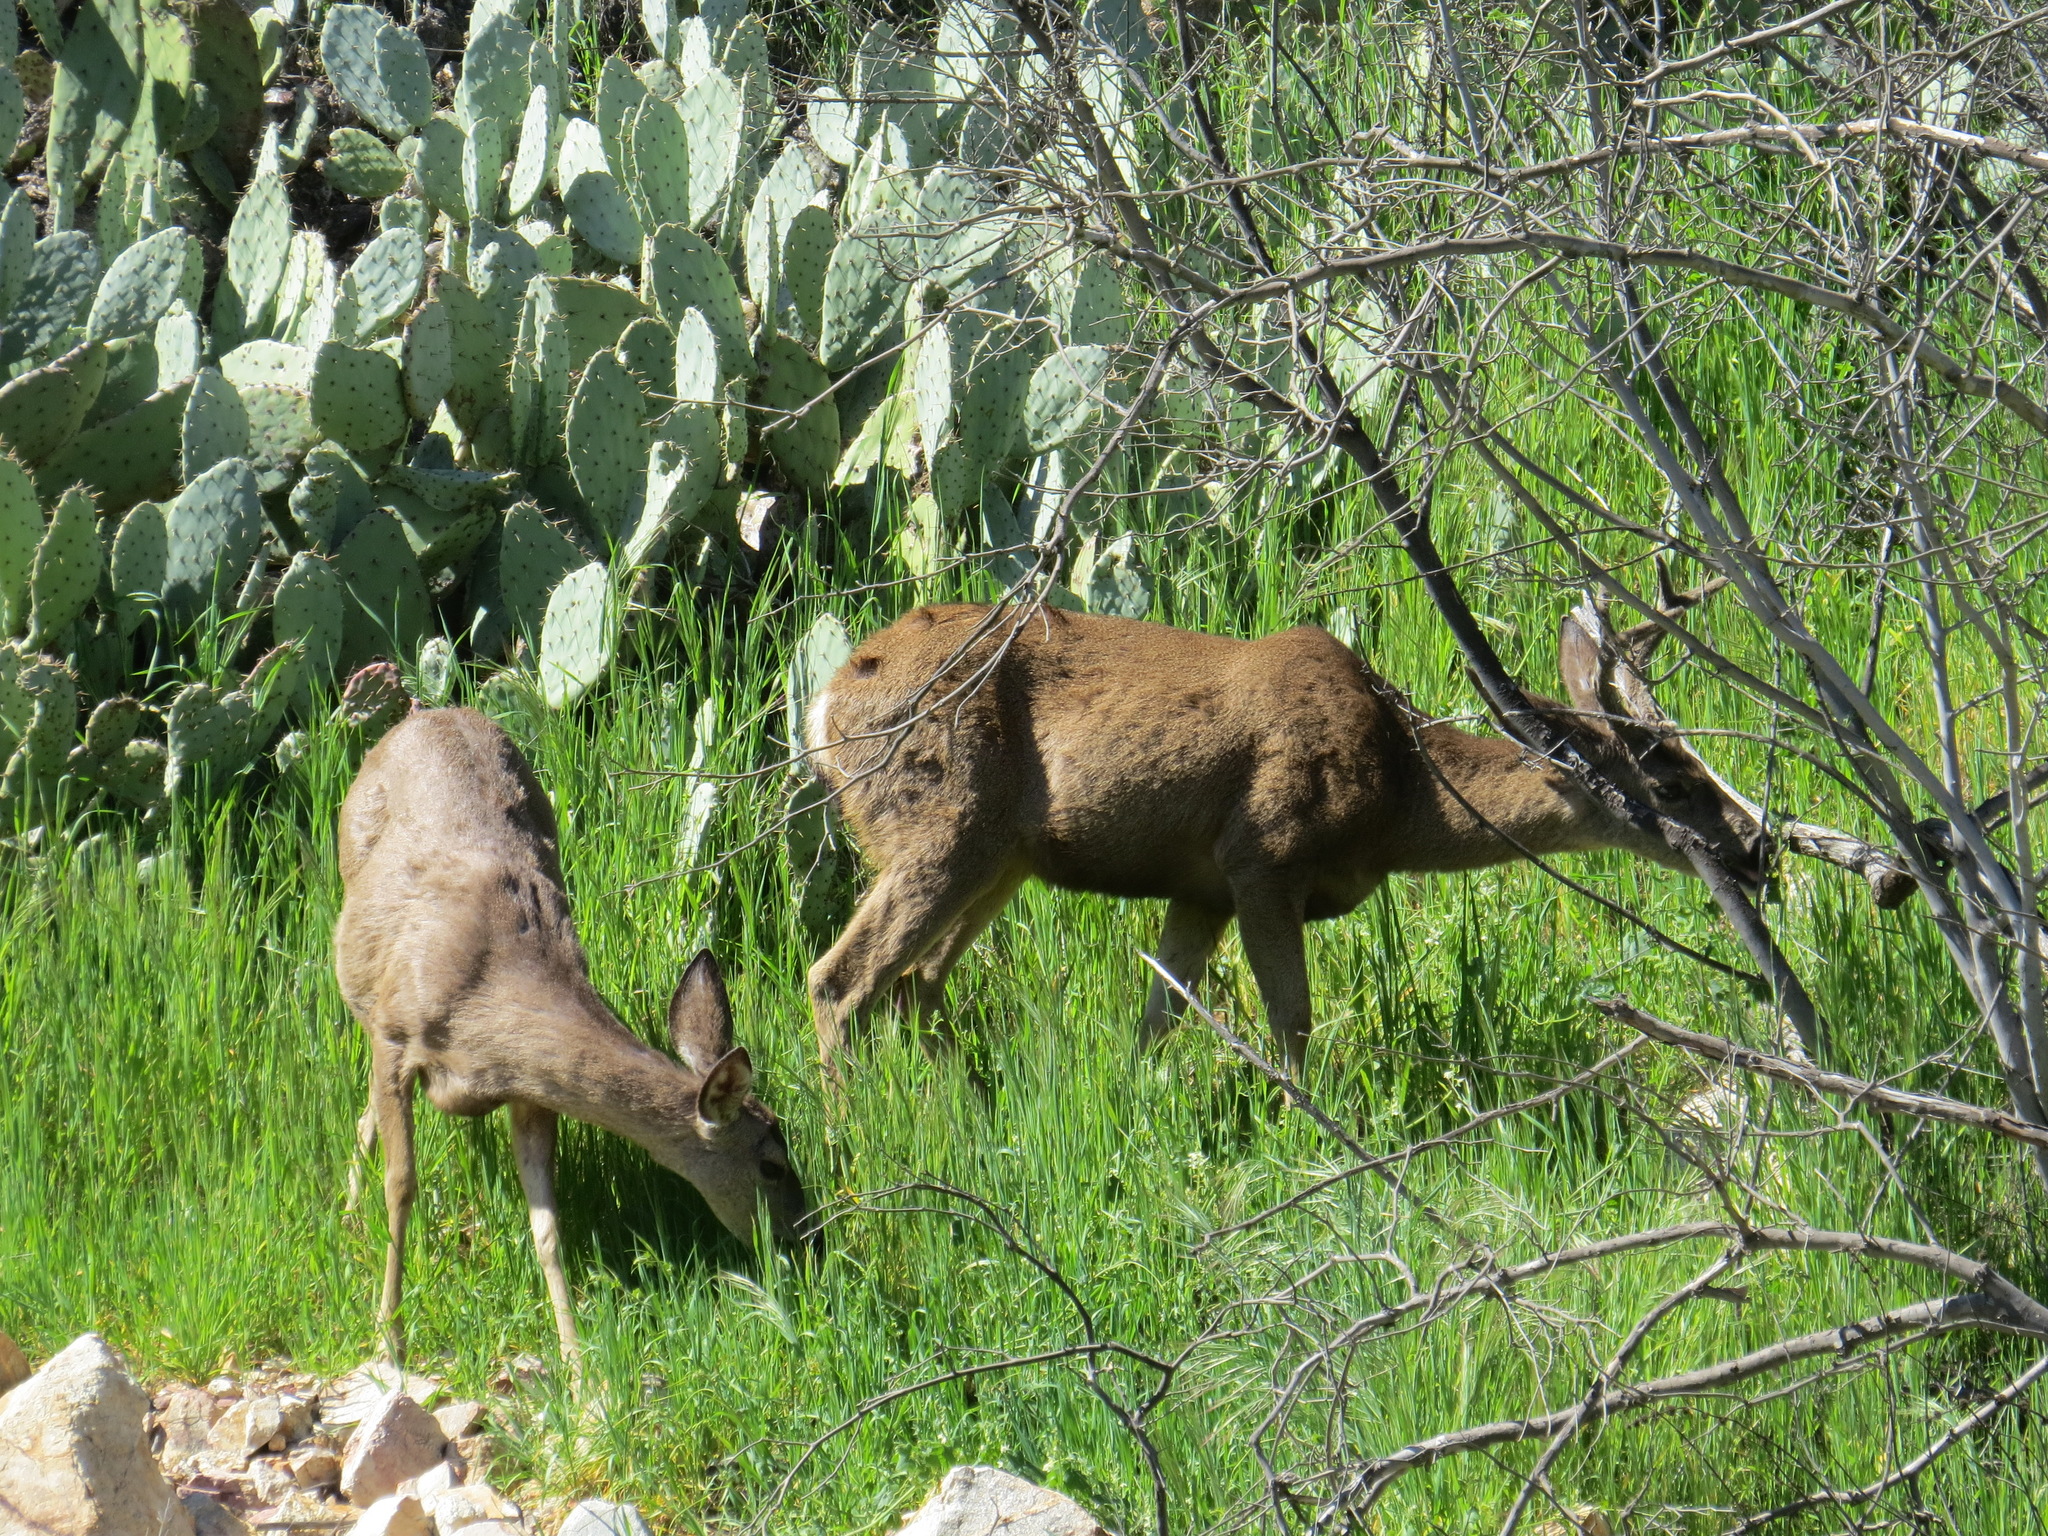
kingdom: Animalia
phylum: Chordata
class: Mammalia
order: Artiodactyla
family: Cervidae
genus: Odocoileus
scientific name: Odocoileus hemionus
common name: Mule deer
